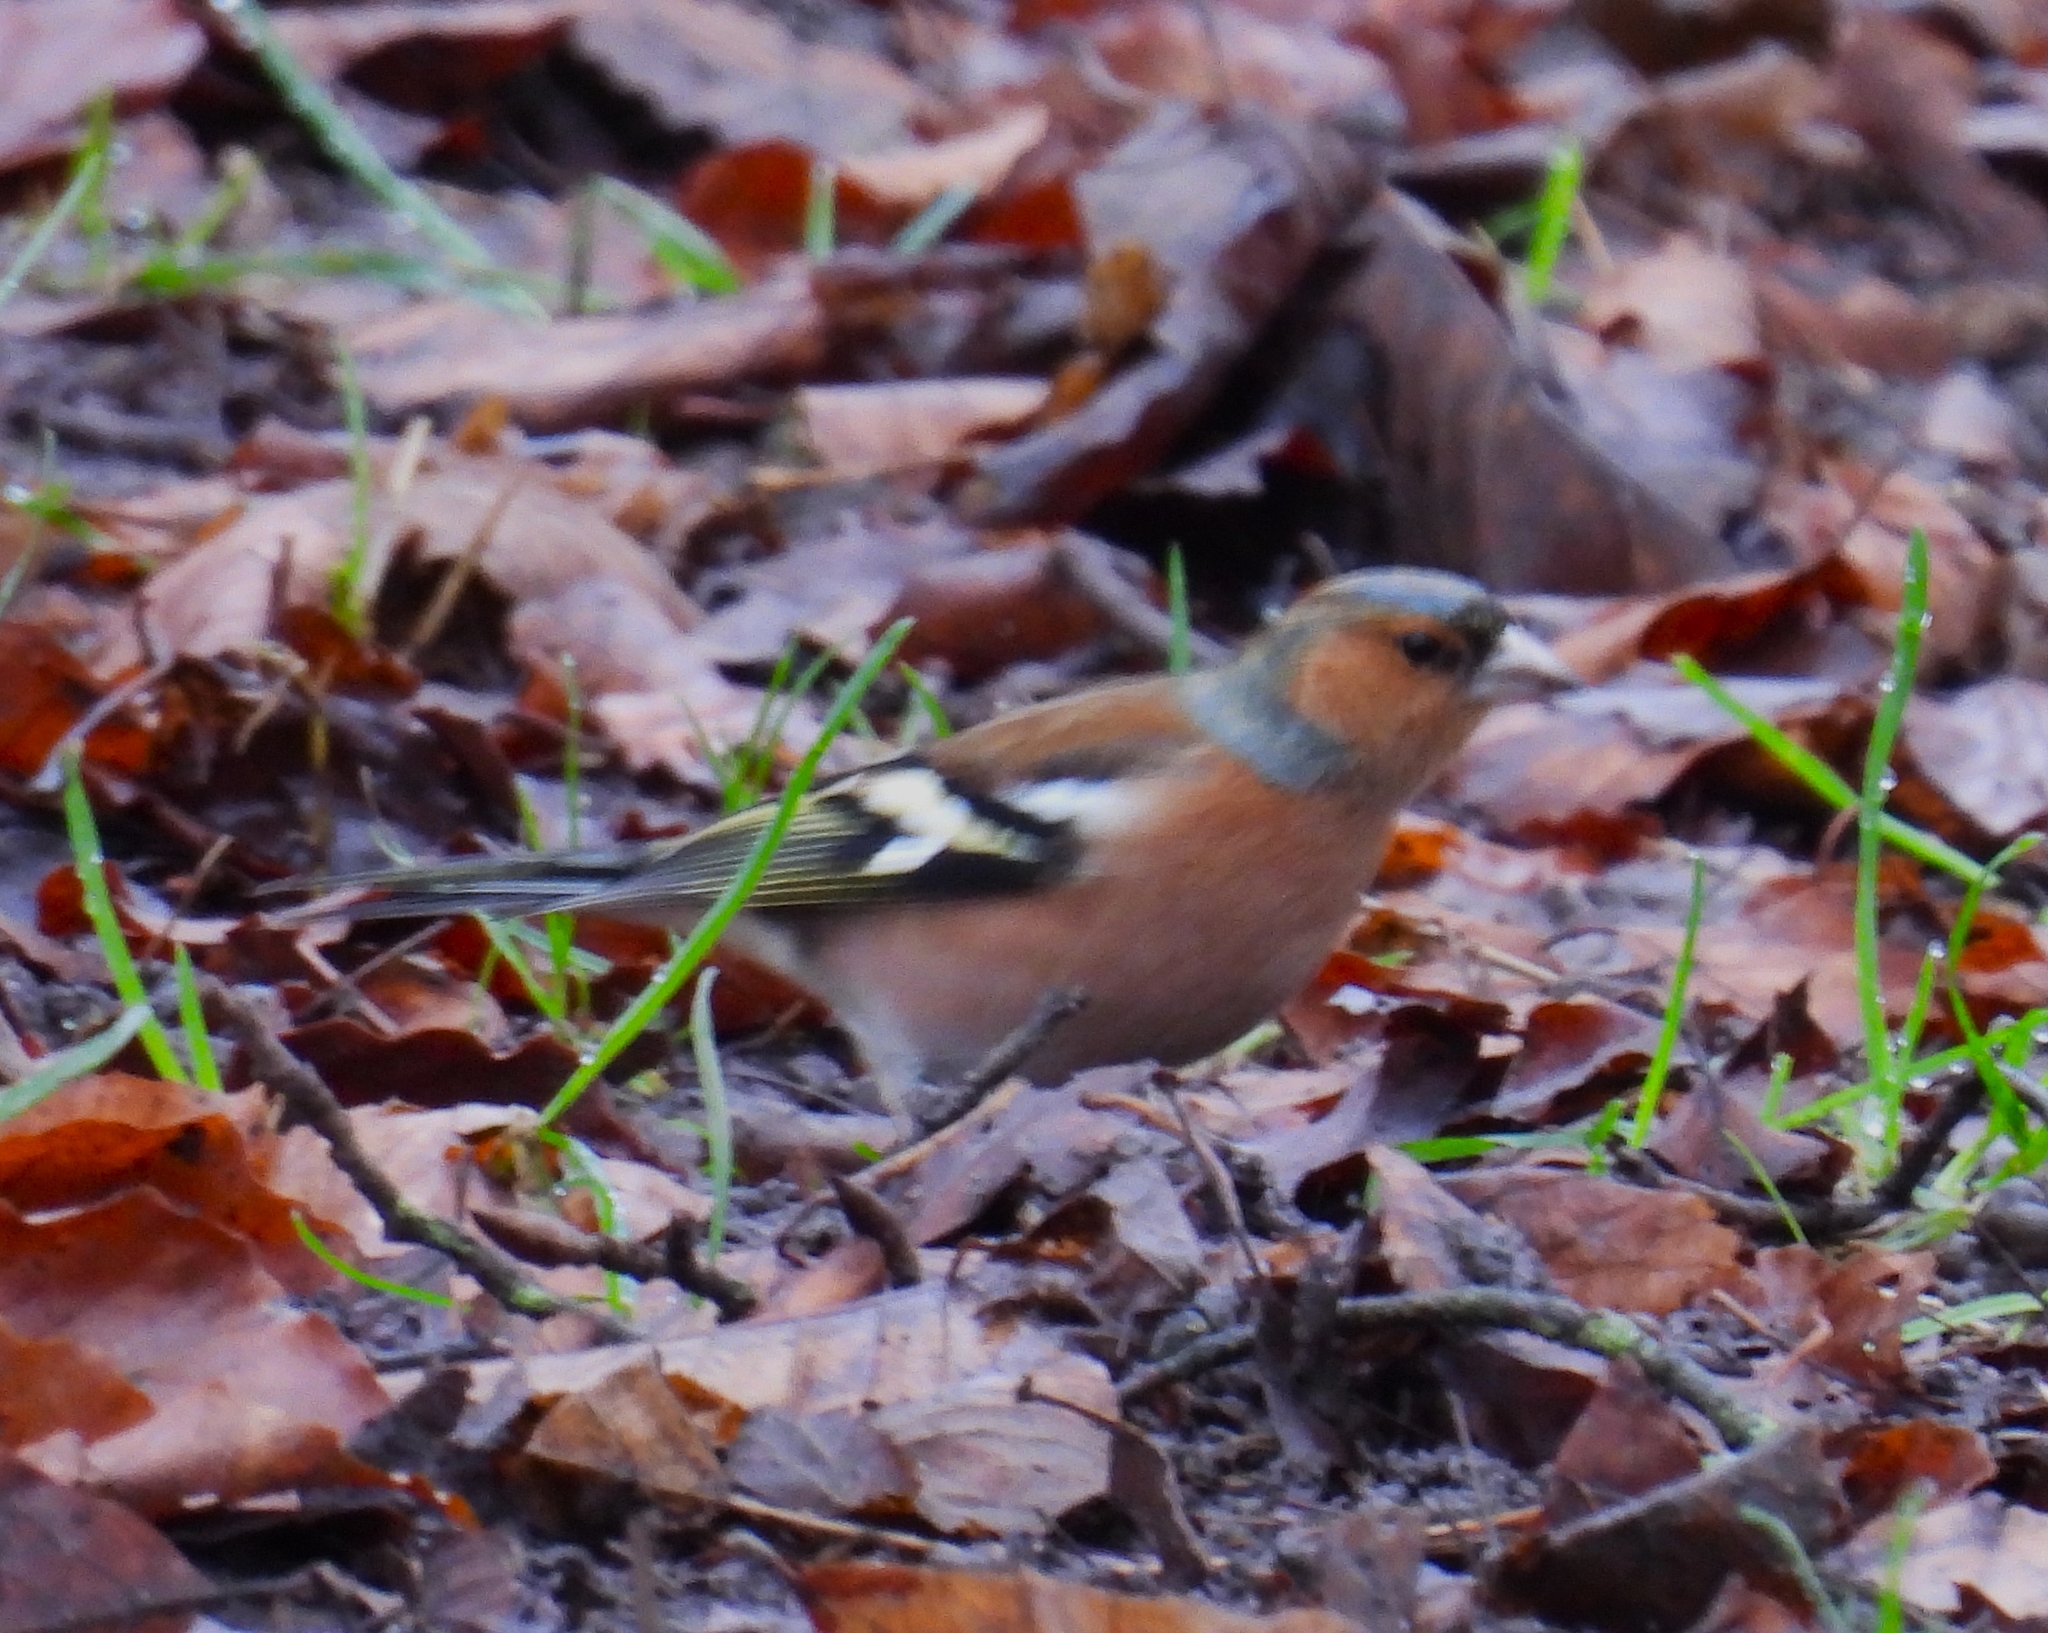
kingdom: Animalia
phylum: Chordata
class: Aves
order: Passeriformes
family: Fringillidae
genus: Fringilla
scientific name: Fringilla coelebs
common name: Common chaffinch
